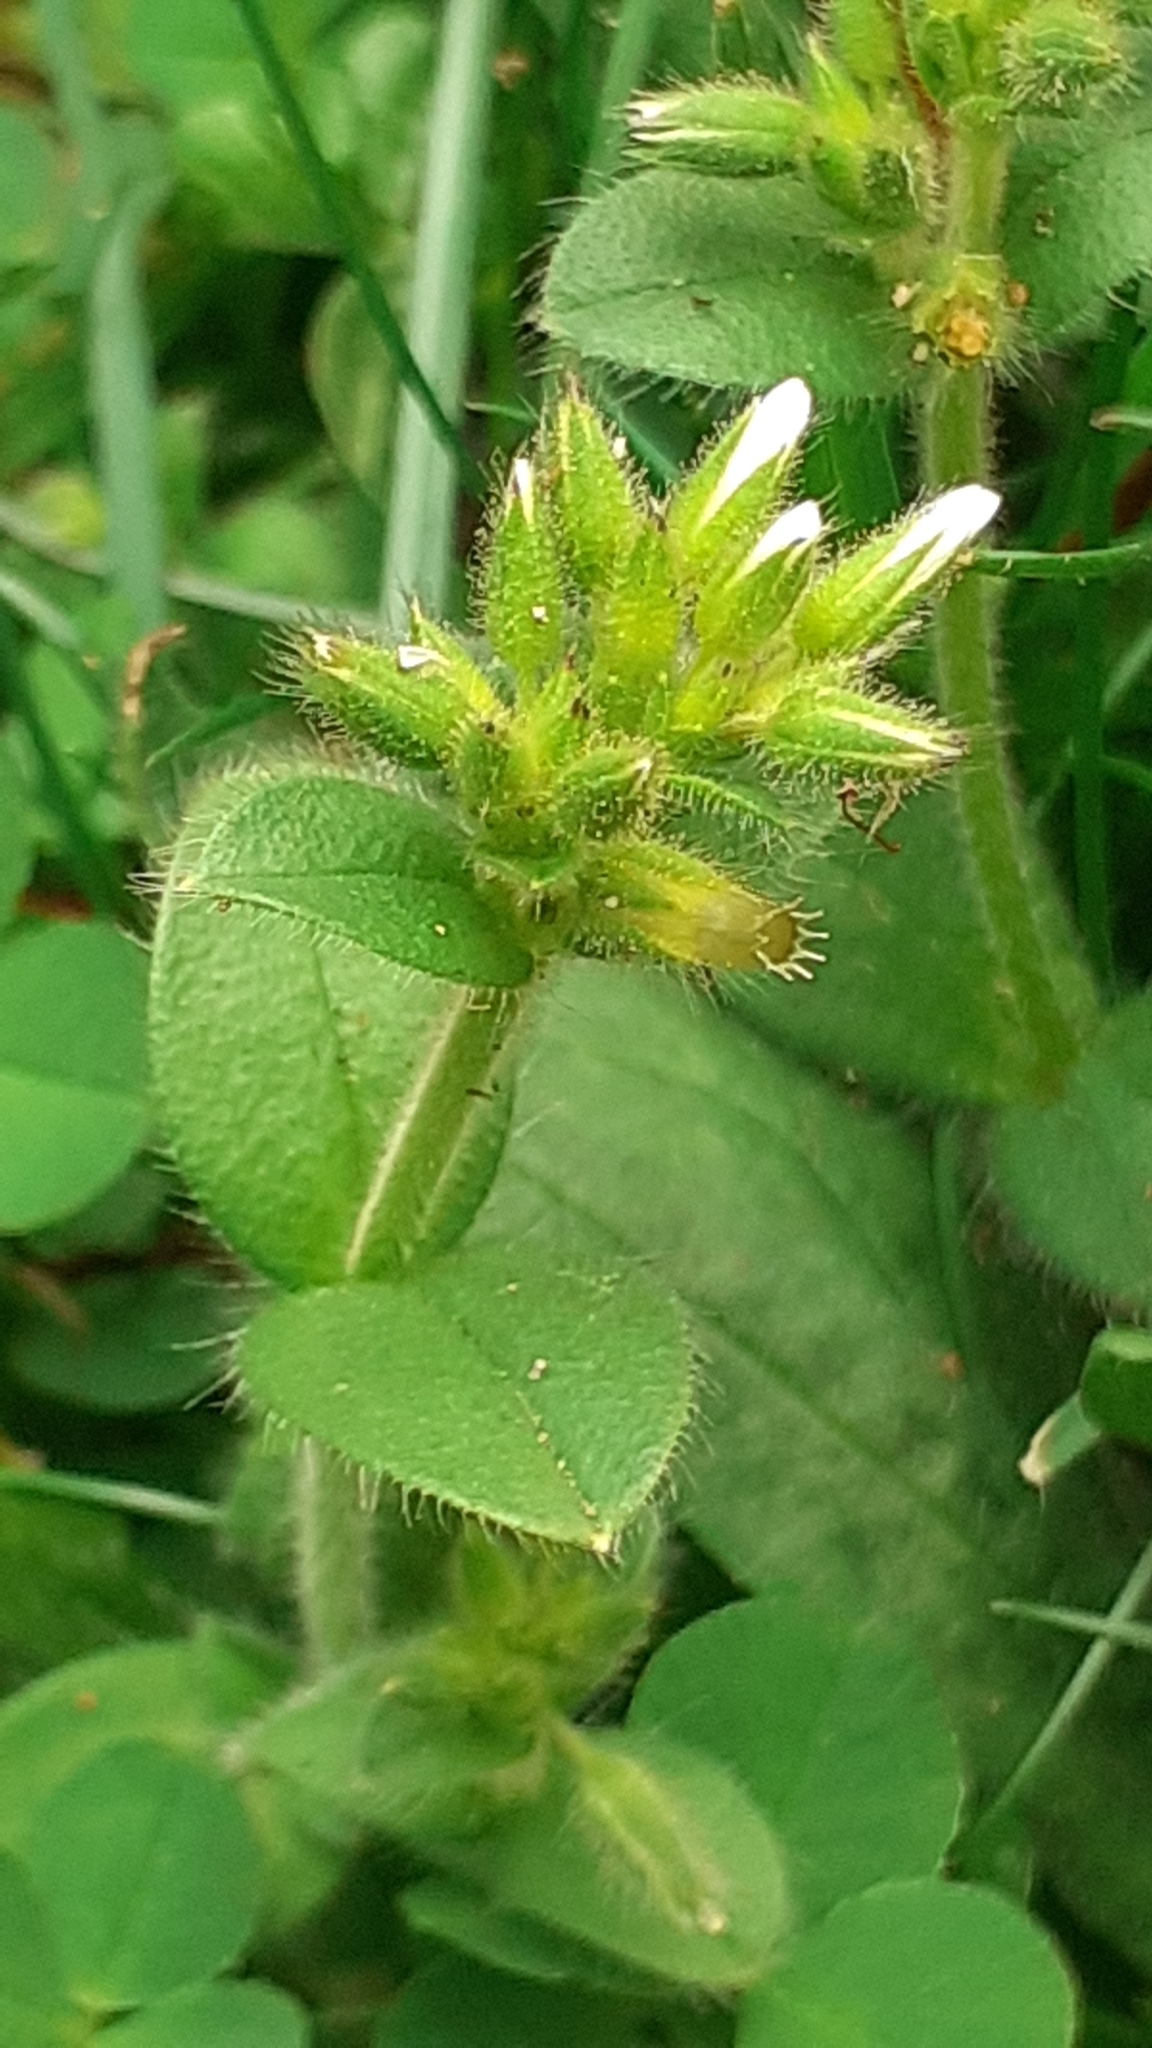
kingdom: Plantae
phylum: Tracheophyta
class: Magnoliopsida
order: Caryophyllales
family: Caryophyllaceae
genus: Cerastium
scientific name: Cerastium glomeratum
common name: Sticky chickweed
